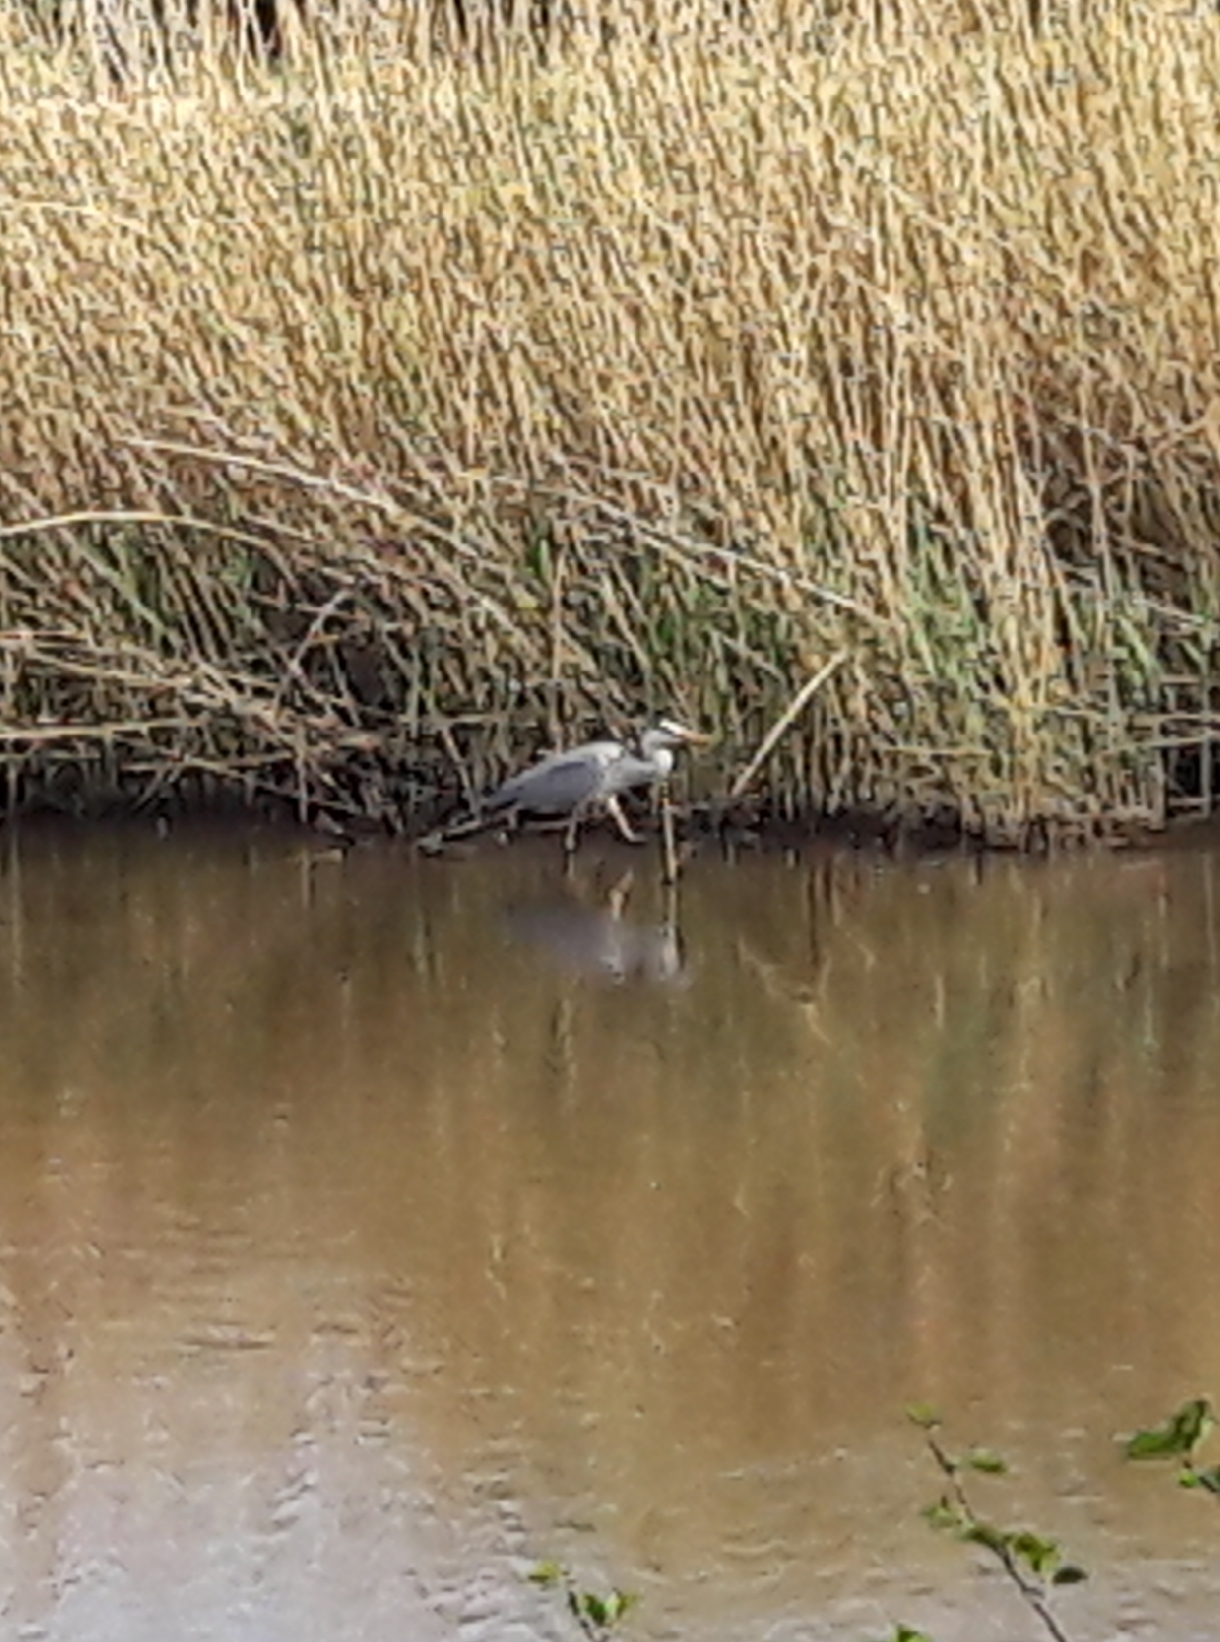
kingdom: Animalia
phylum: Chordata
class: Aves
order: Pelecaniformes
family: Ardeidae
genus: Ardea
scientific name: Ardea cinerea
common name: Grey heron
